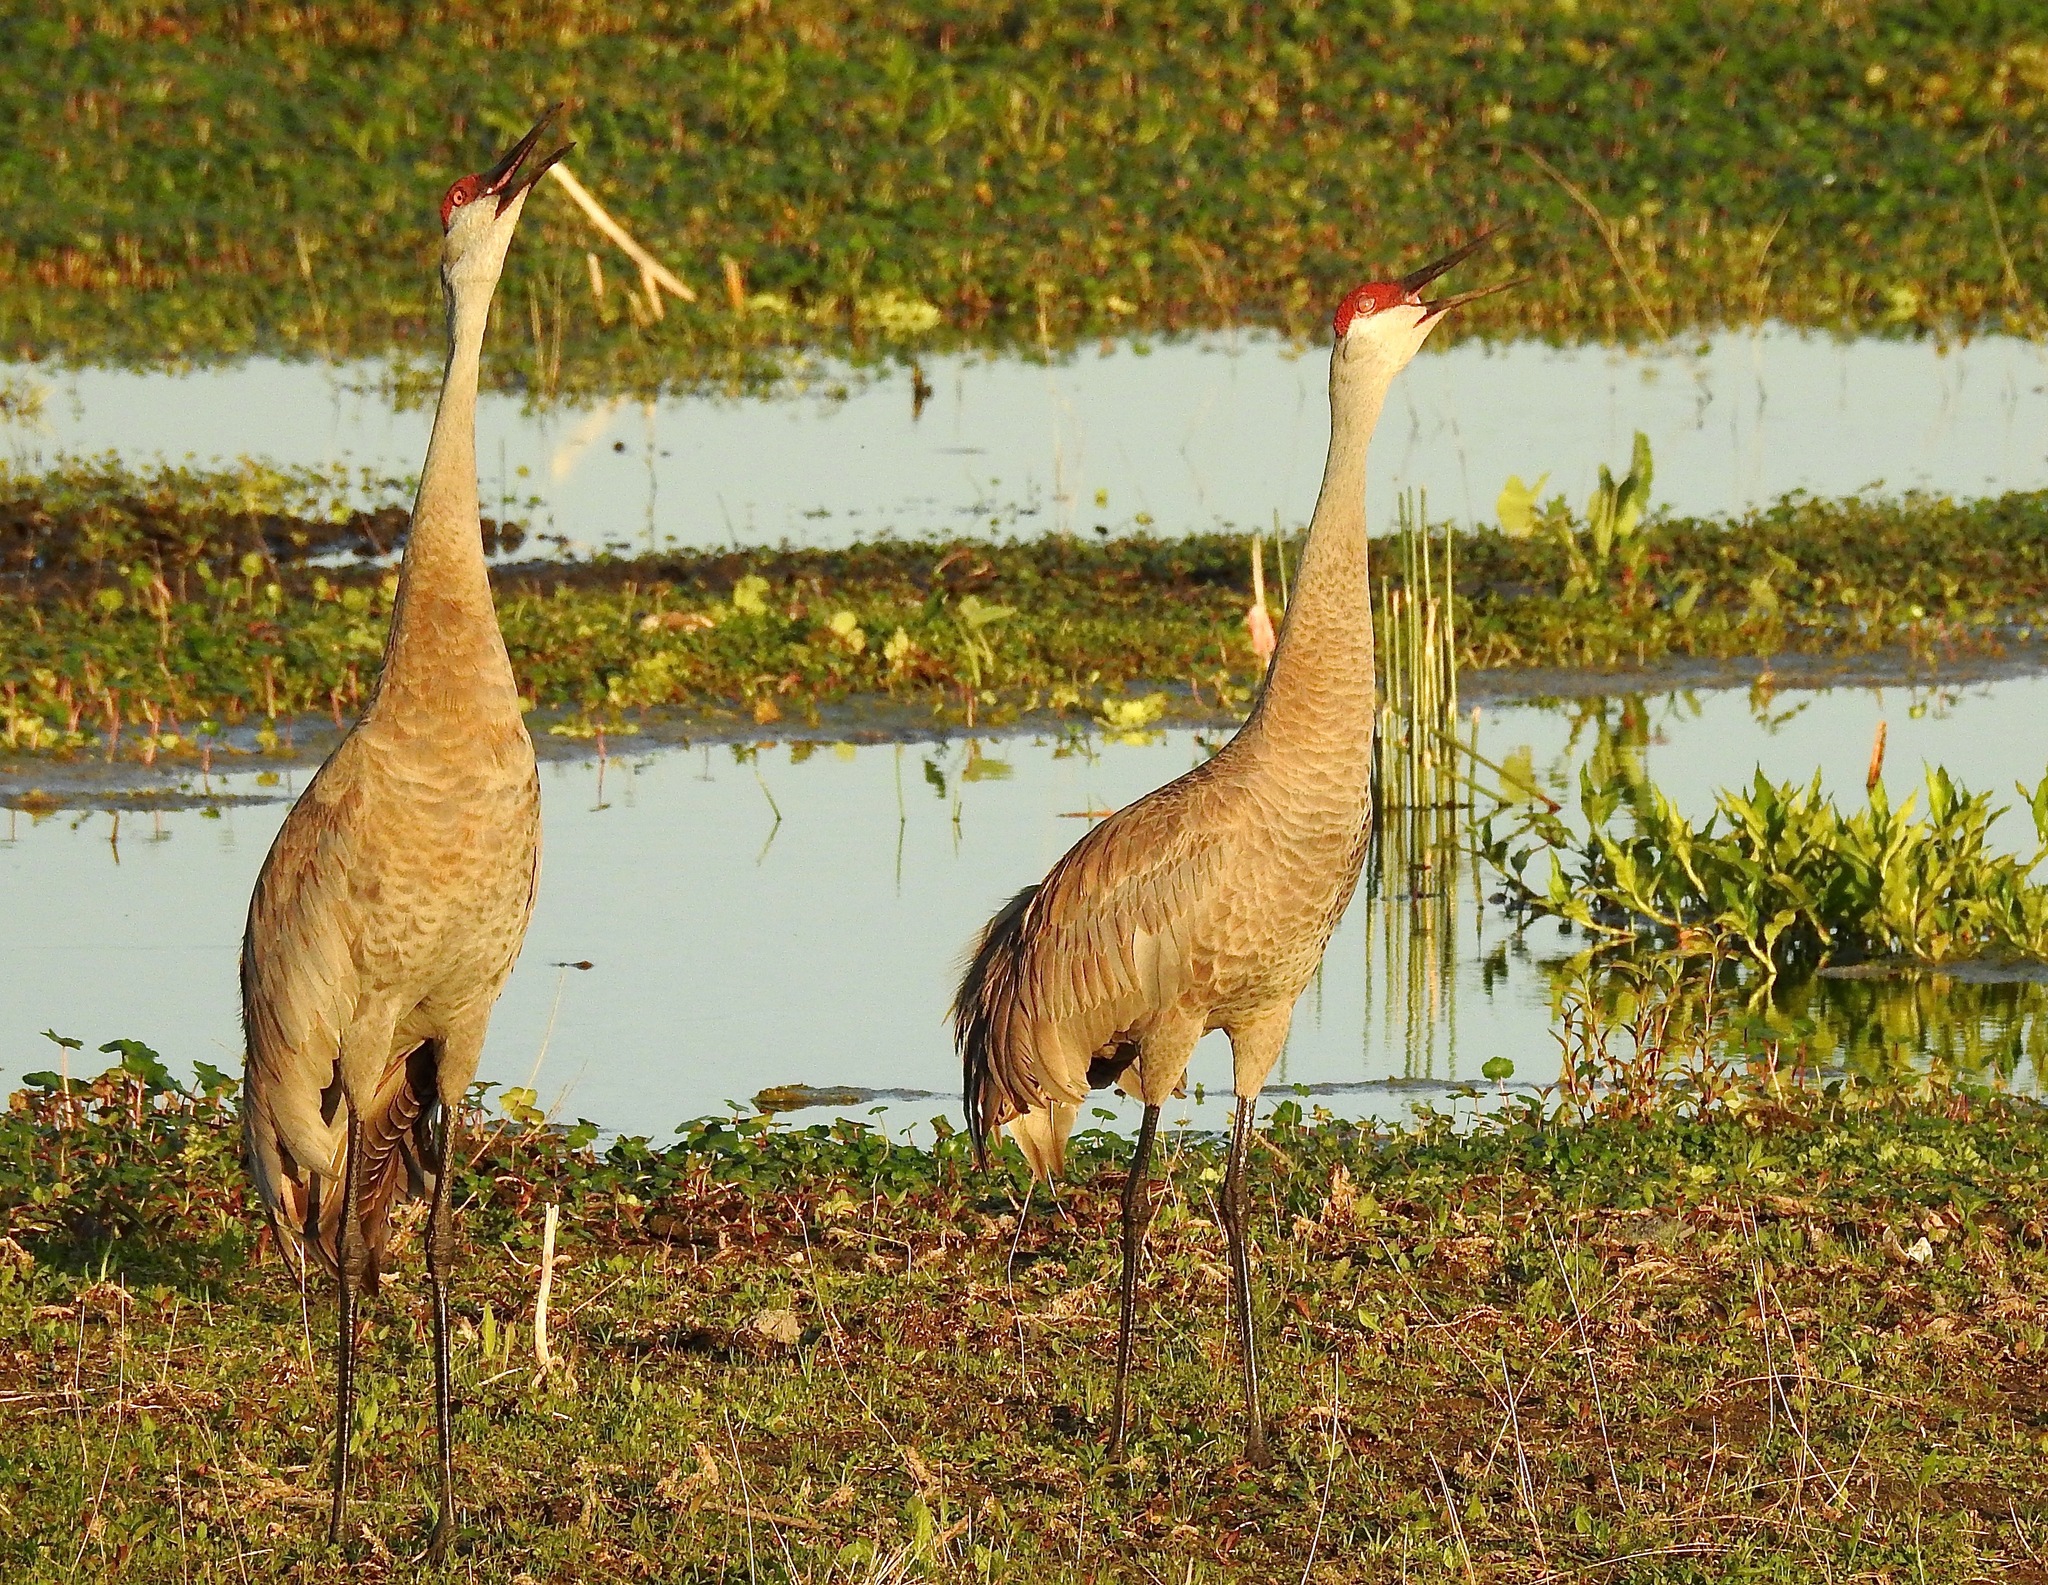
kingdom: Animalia
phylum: Chordata
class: Aves
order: Gruiformes
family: Gruidae
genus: Grus
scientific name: Grus canadensis
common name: Sandhill crane
